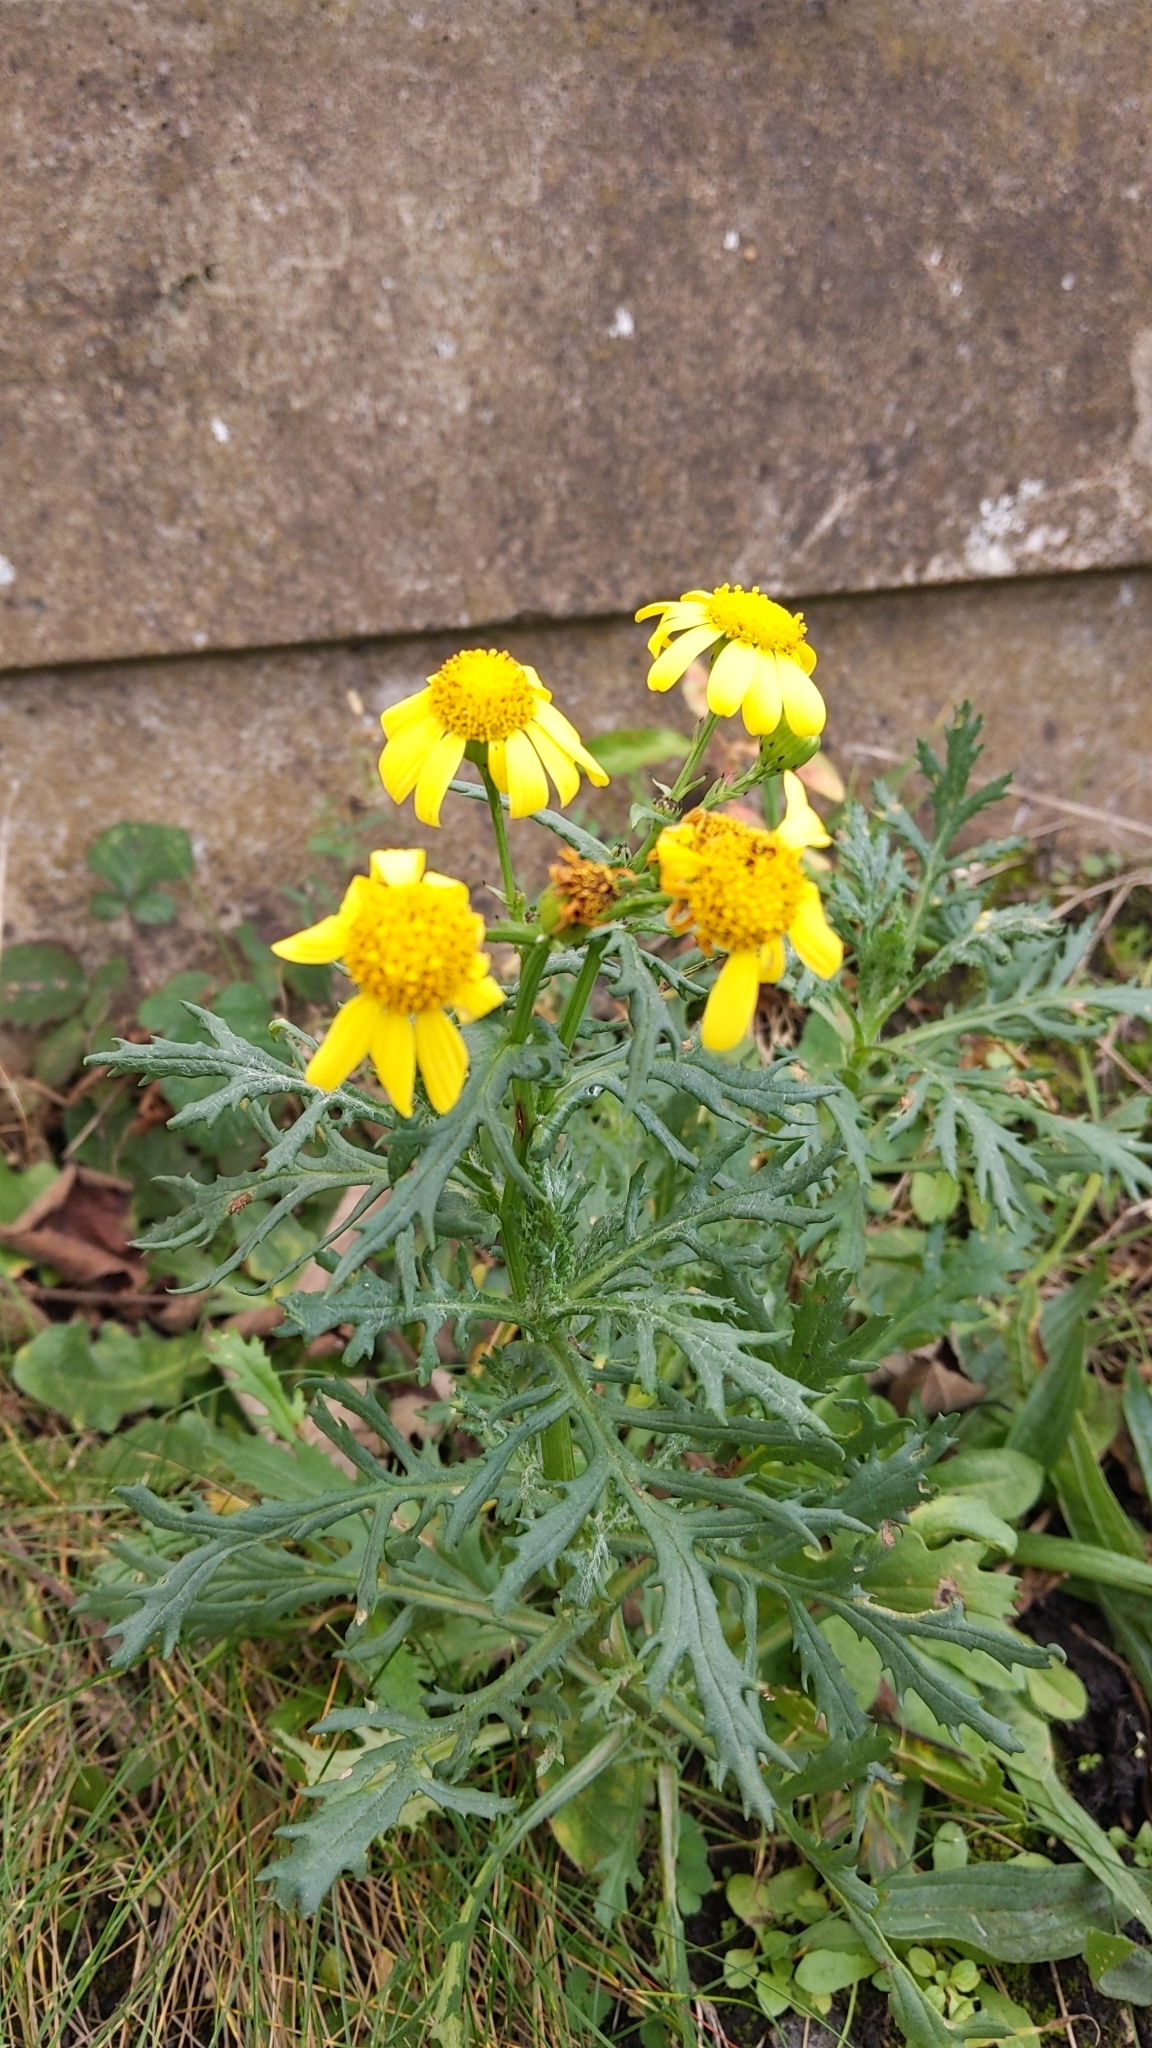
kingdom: Plantae
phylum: Tracheophyta
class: Magnoliopsida
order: Asterales
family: Asteraceae
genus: Senecio
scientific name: Senecio squalidus
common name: Oxford ragwort
